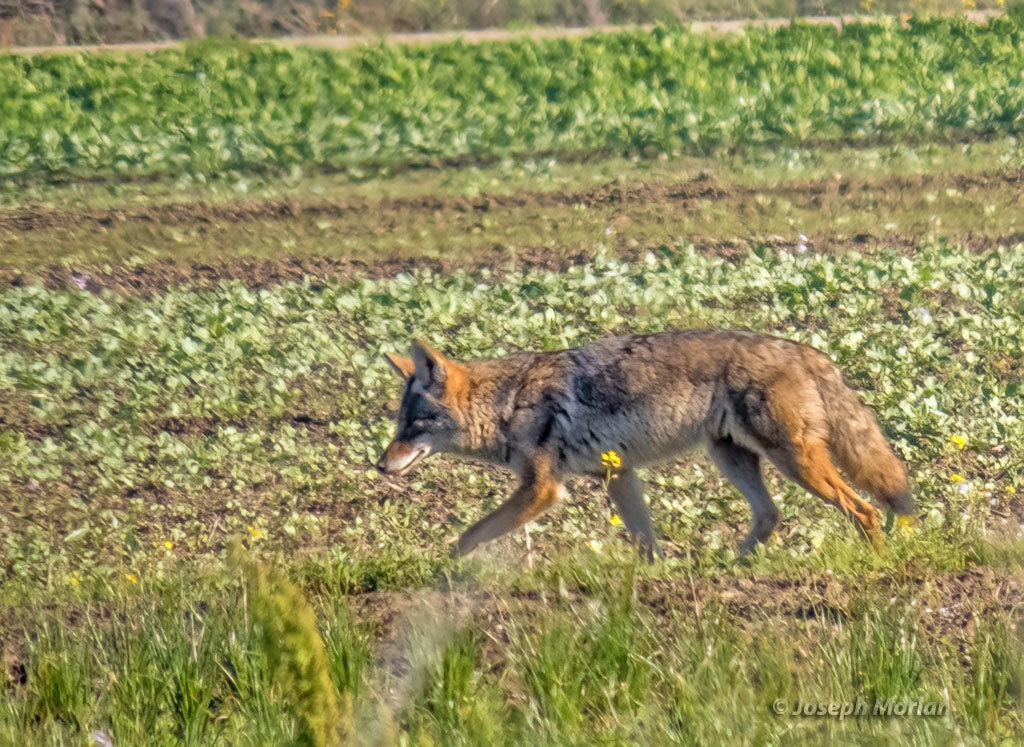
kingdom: Animalia
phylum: Chordata
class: Mammalia
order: Carnivora
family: Canidae
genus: Canis
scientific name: Canis latrans
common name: Coyote
